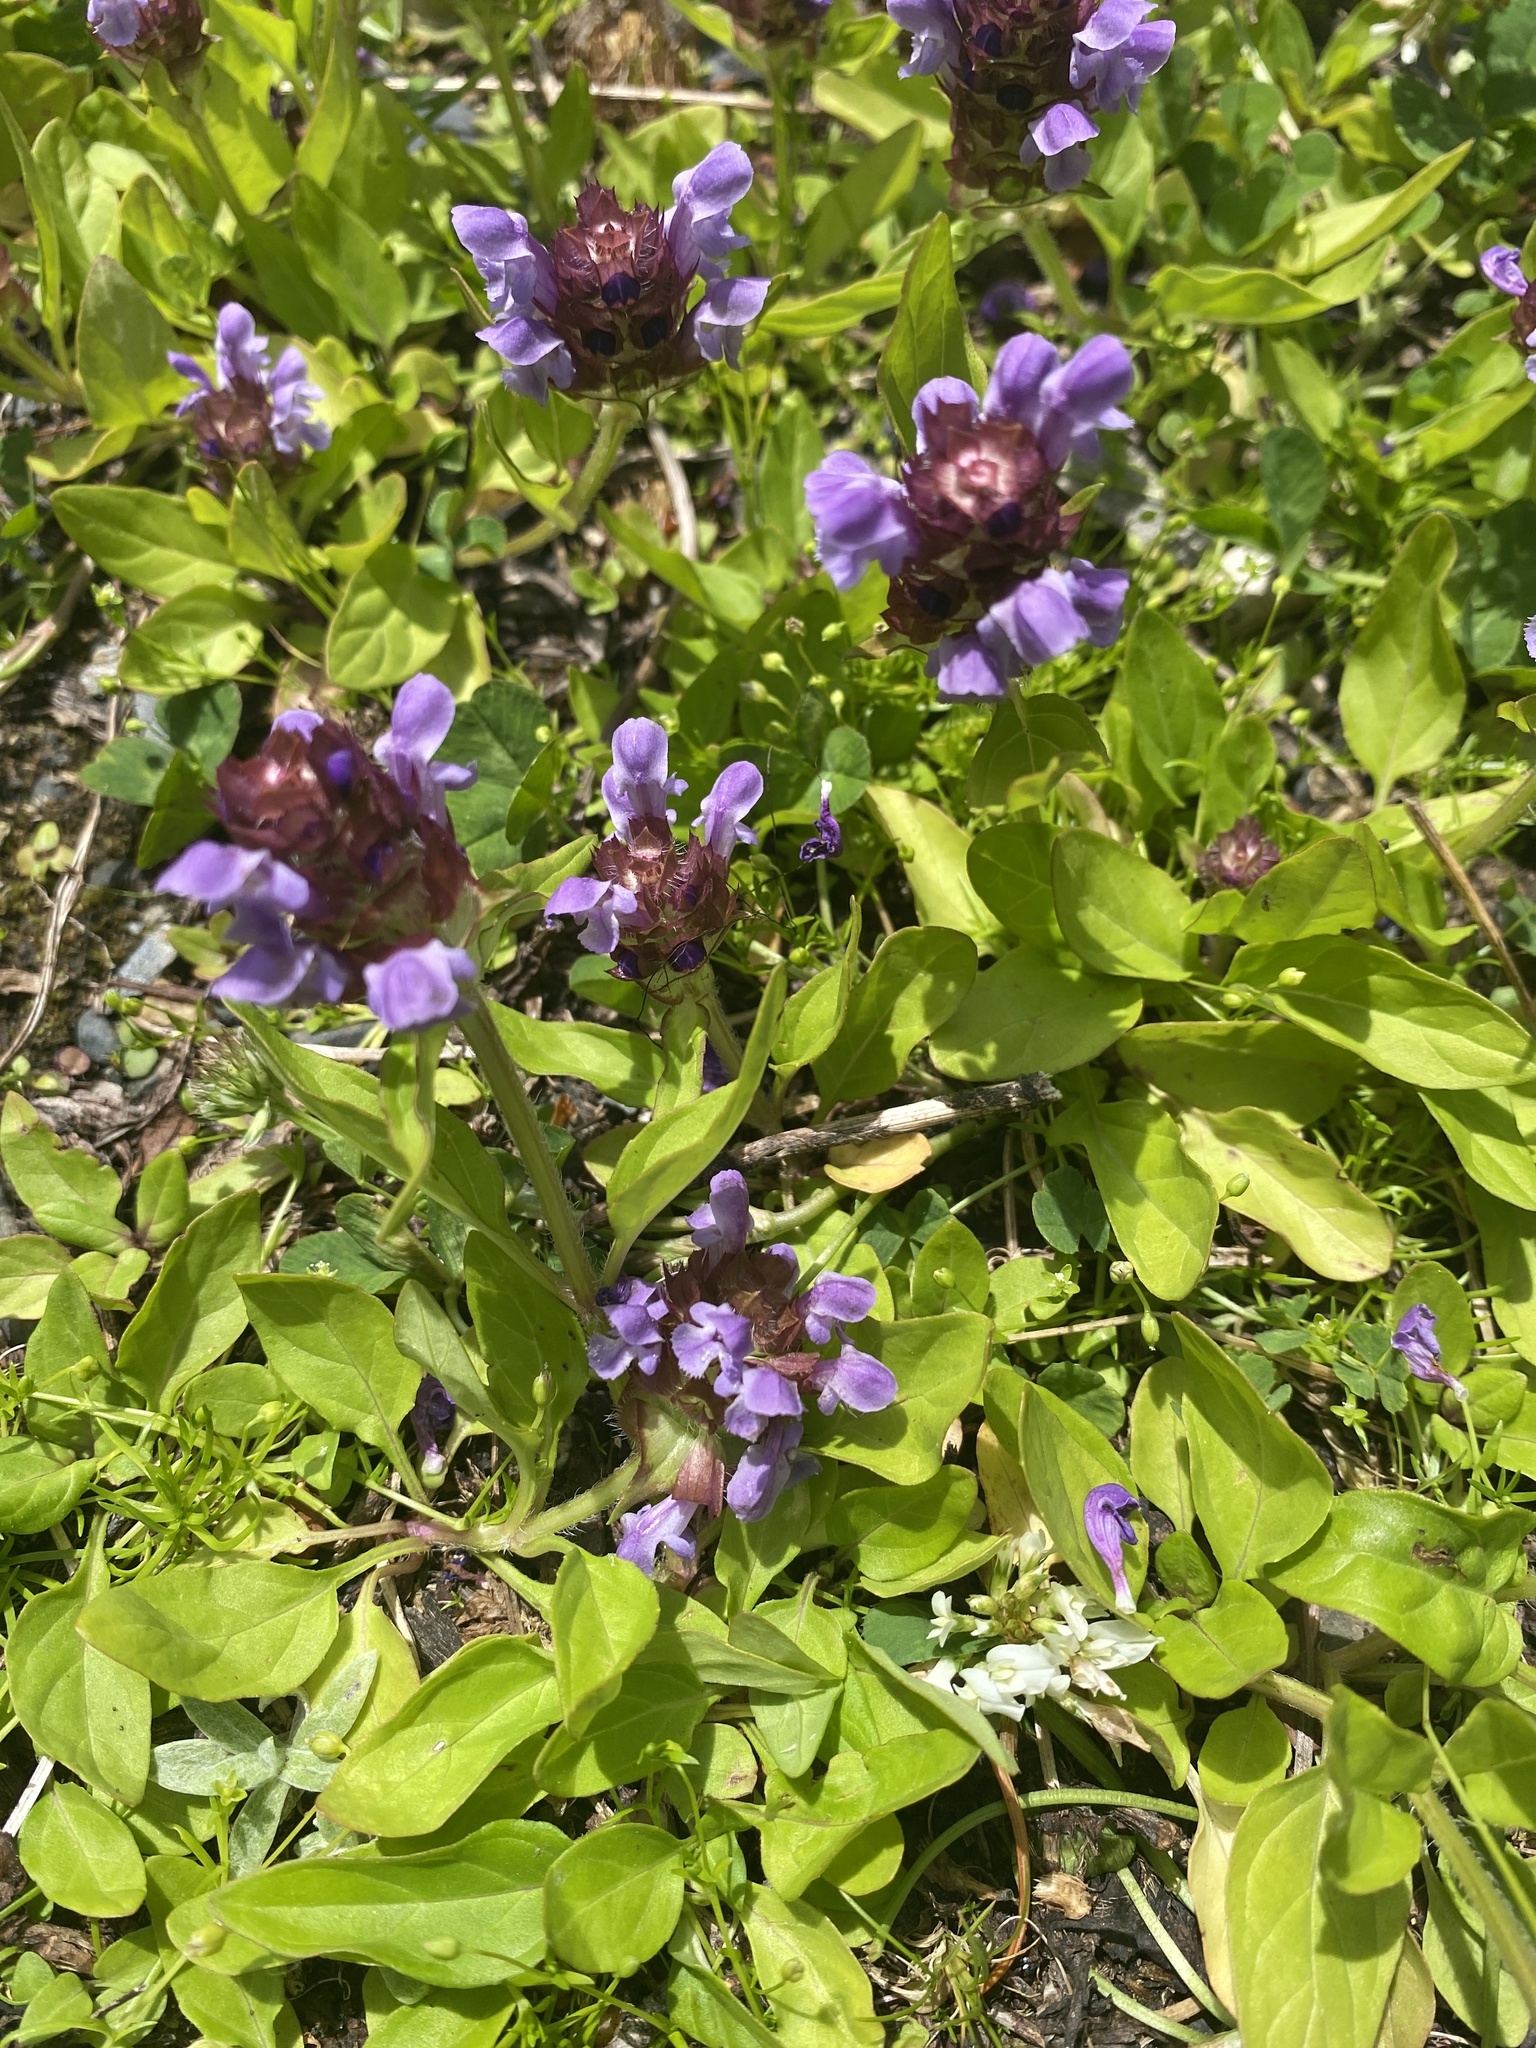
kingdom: Plantae
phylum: Tracheophyta
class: Magnoliopsida
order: Lamiales
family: Lamiaceae
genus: Prunella
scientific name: Prunella vulgaris
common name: Heal-all
